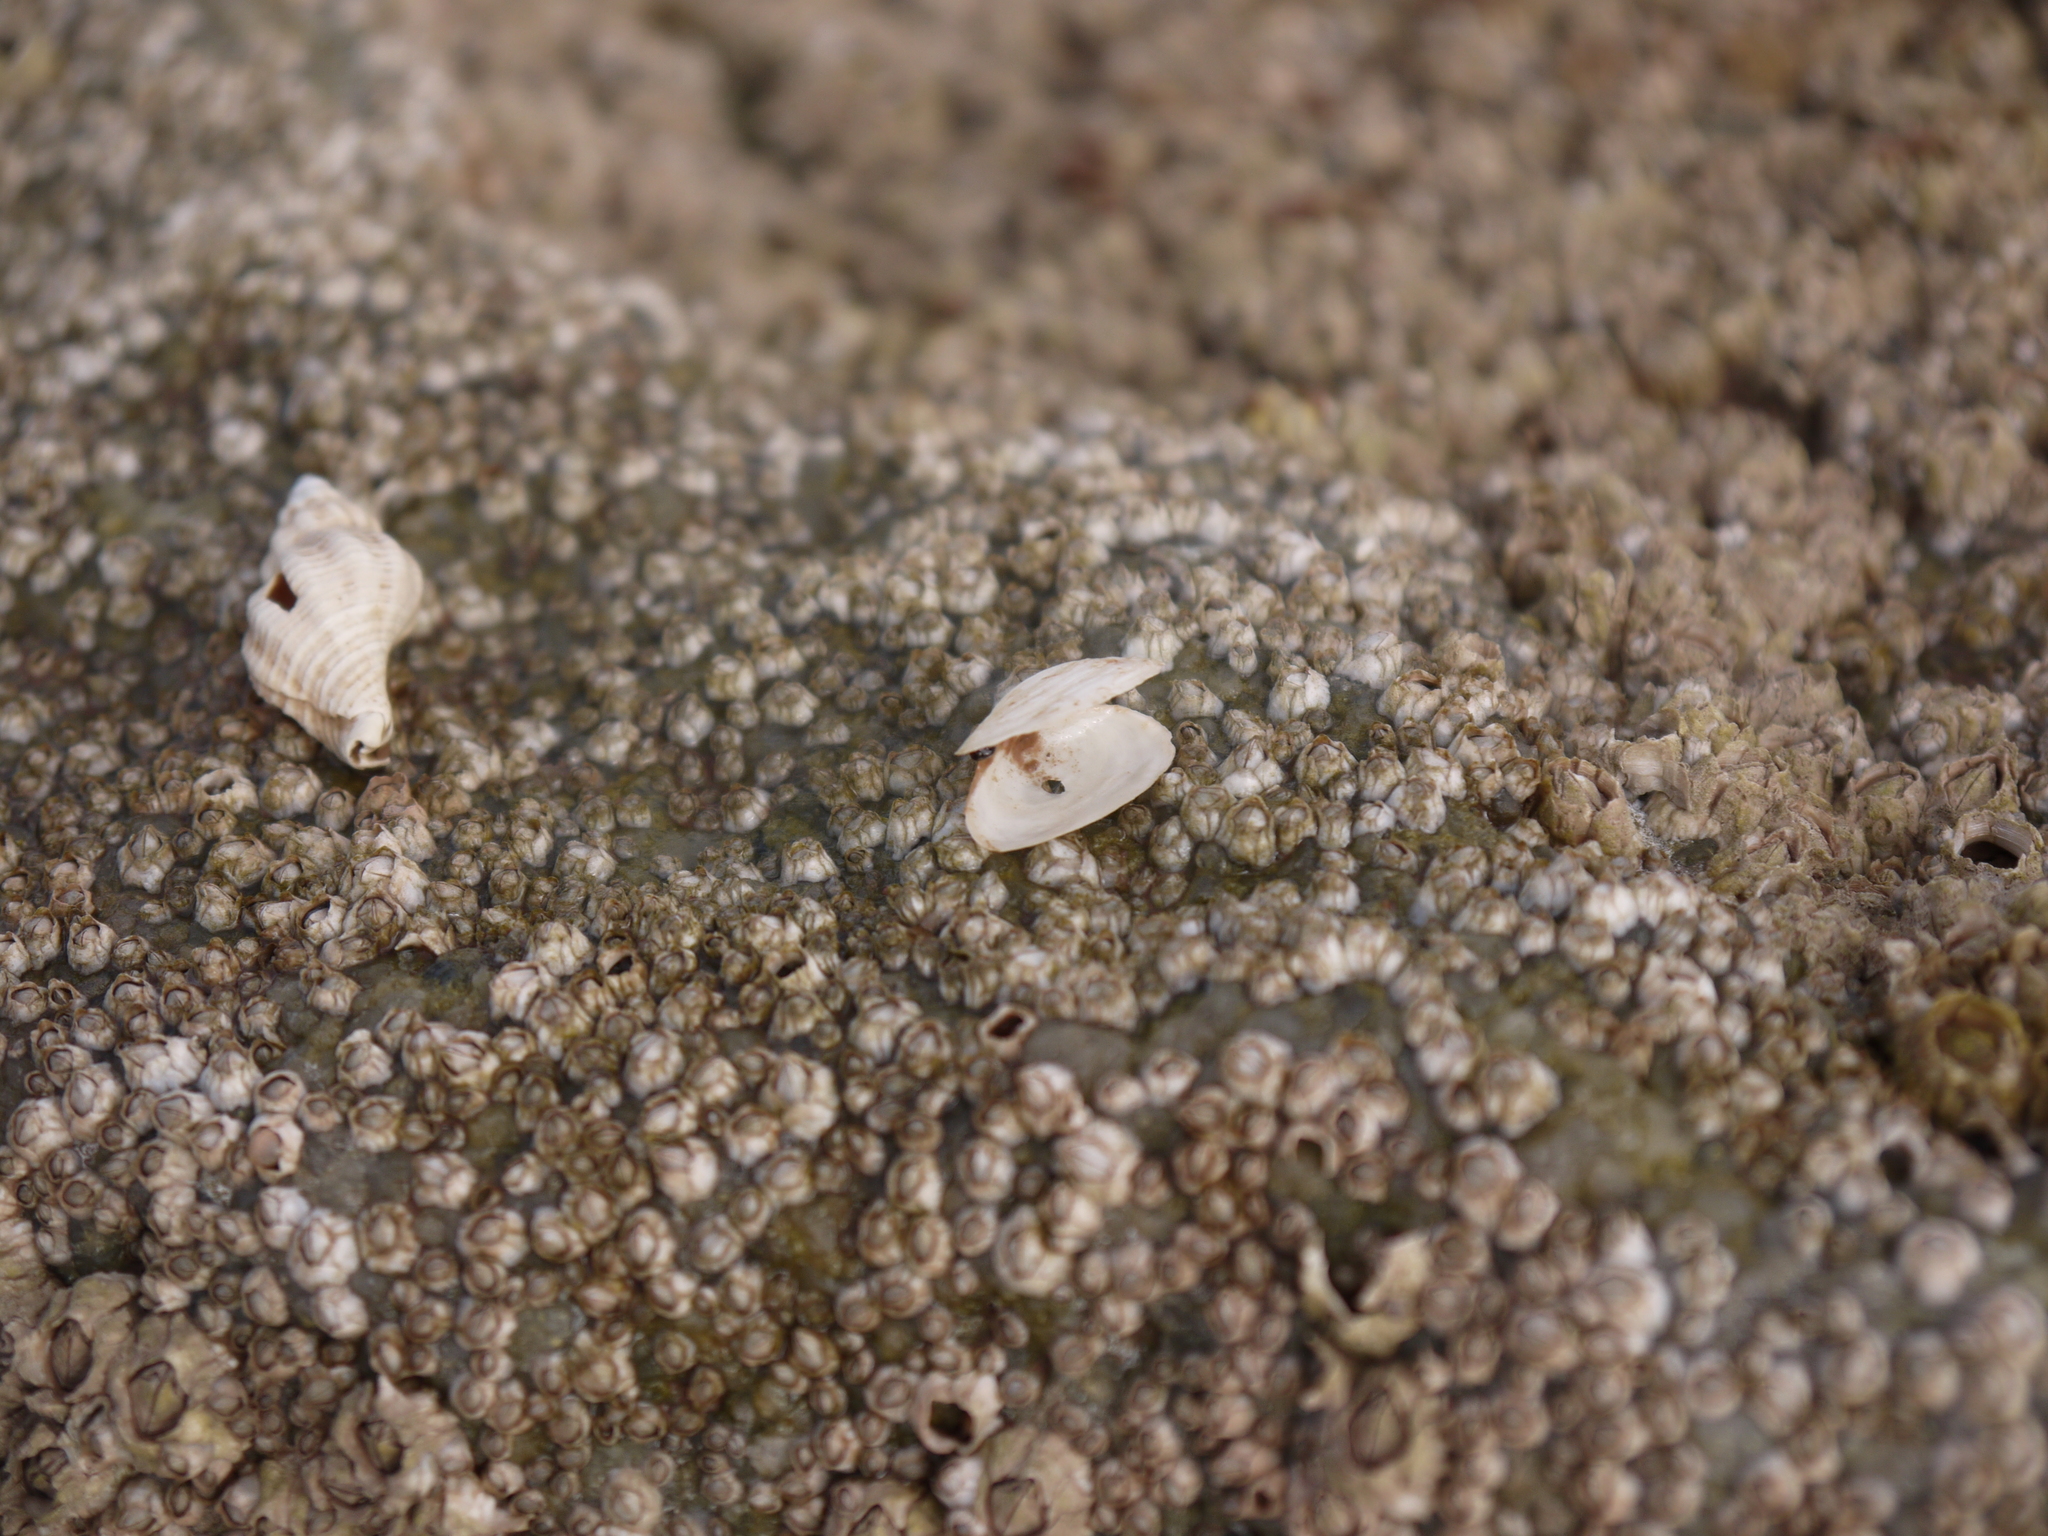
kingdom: Animalia
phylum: Mollusca
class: Bivalvia
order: Myida
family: Myidae
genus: Mya
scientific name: Mya arenaria
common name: Soft-shelled clam
